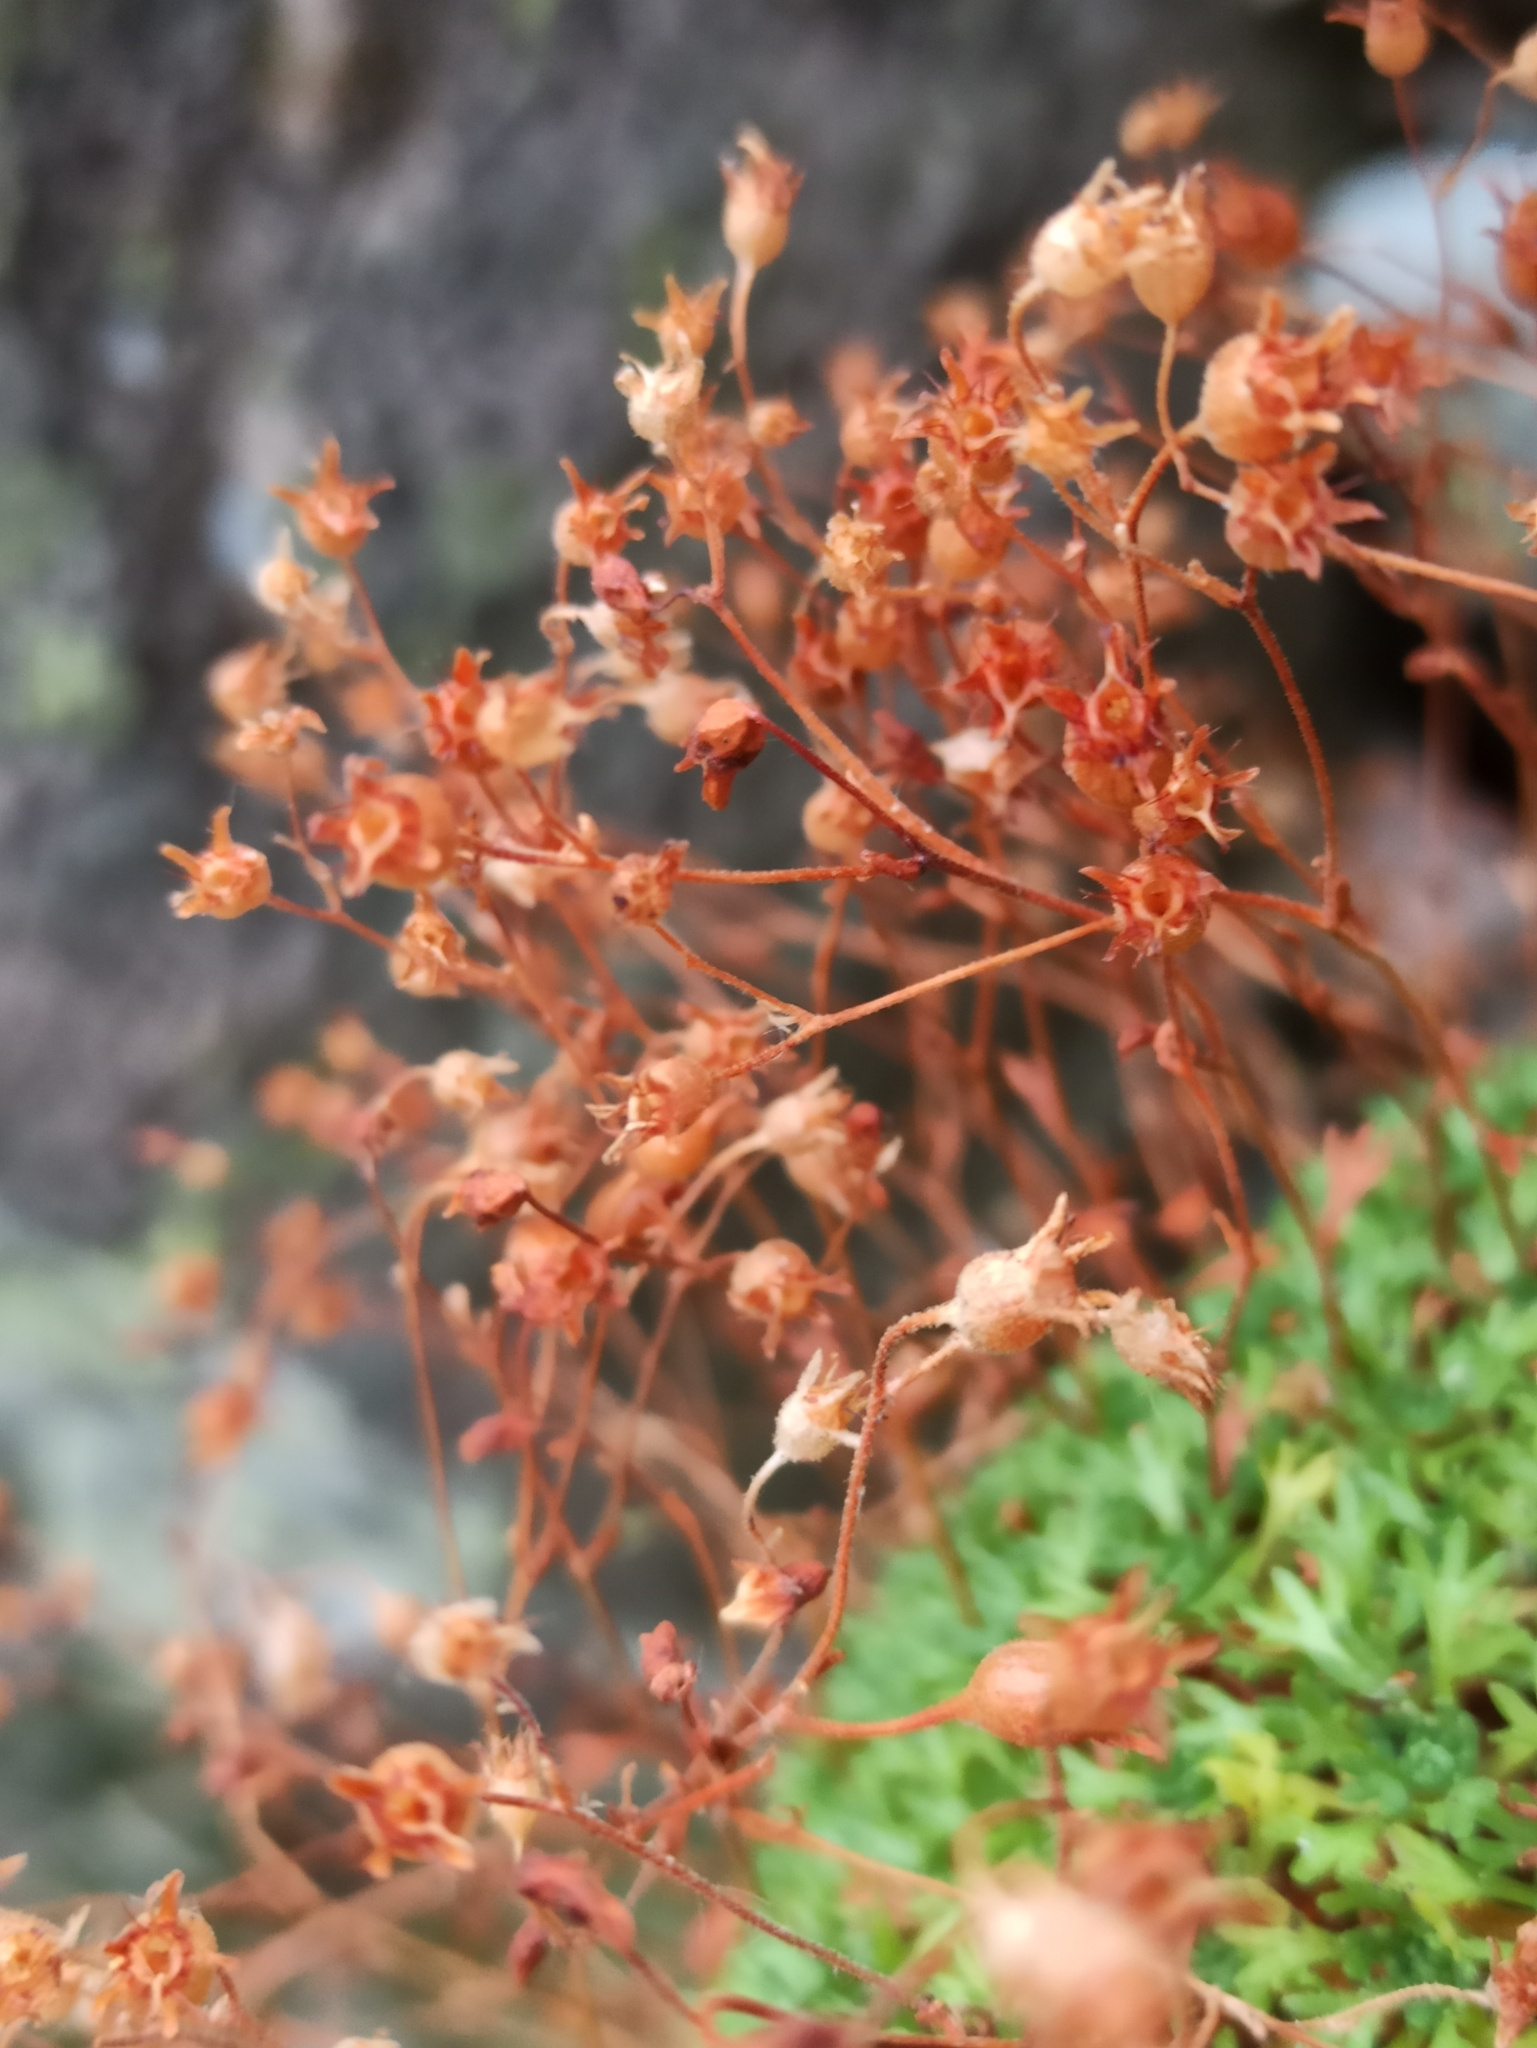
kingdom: Plantae
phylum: Tracheophyta
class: Magnoliopsida
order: Saxifragales
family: Saxifragaceae
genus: Saxifraga
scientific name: Saxifraga vayredana
